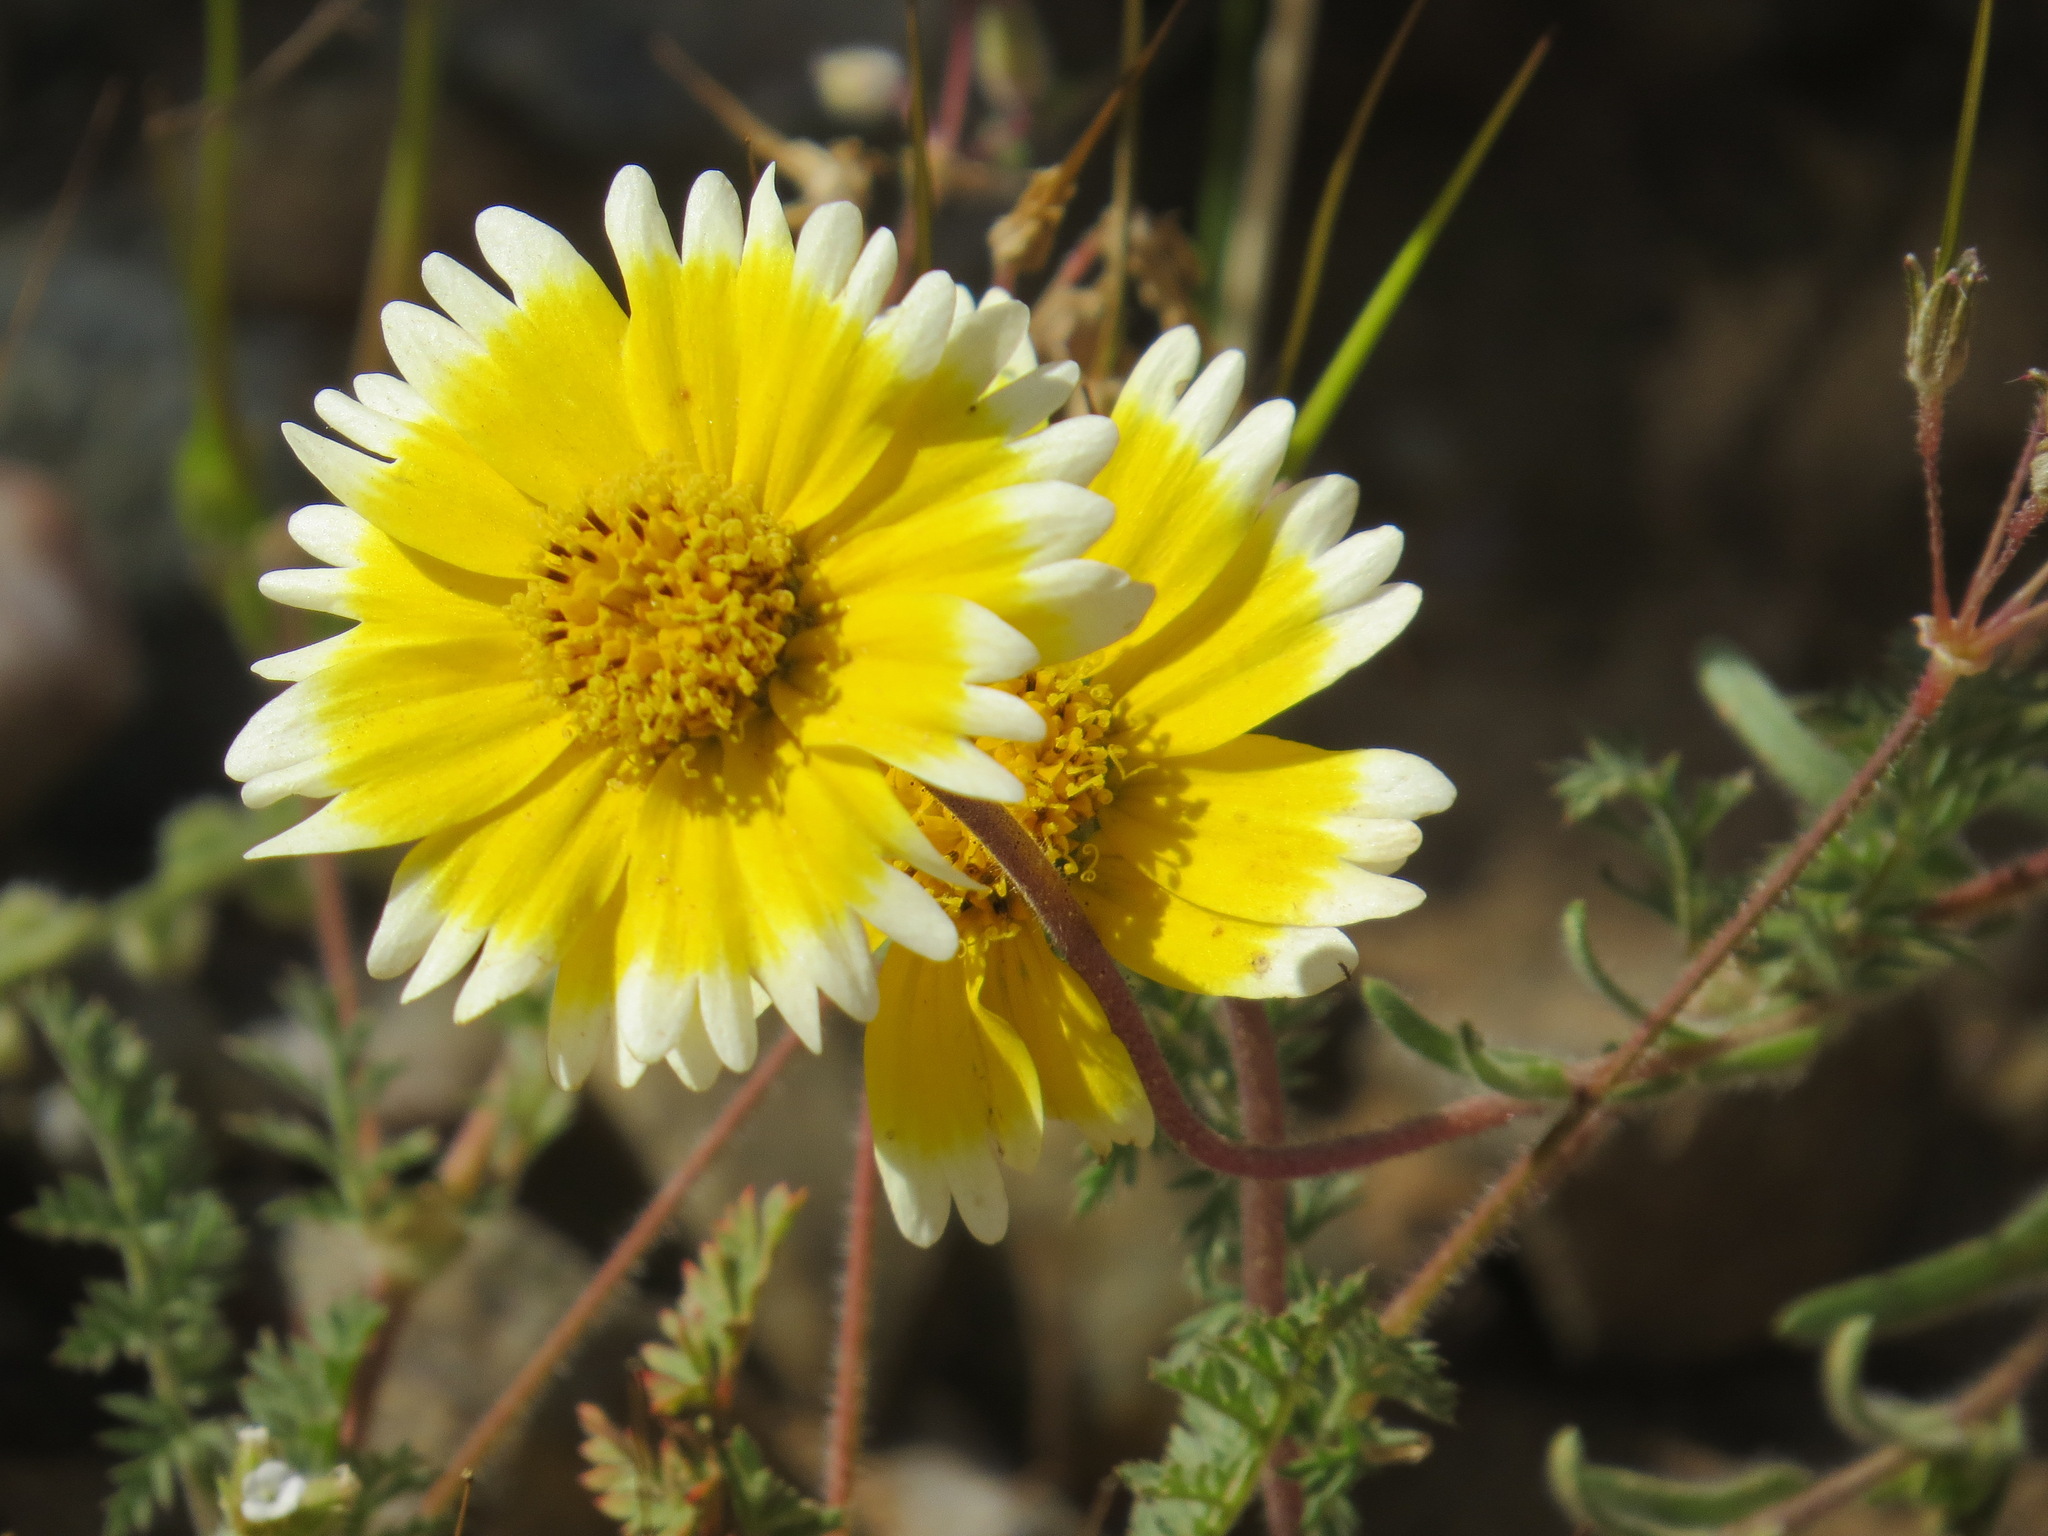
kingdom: Plantae
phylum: Tracheophyta
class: Magnoliopsida
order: Asterales
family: Asteraceae
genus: Layia
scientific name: Layia platyglossa
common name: Tidy-tips
